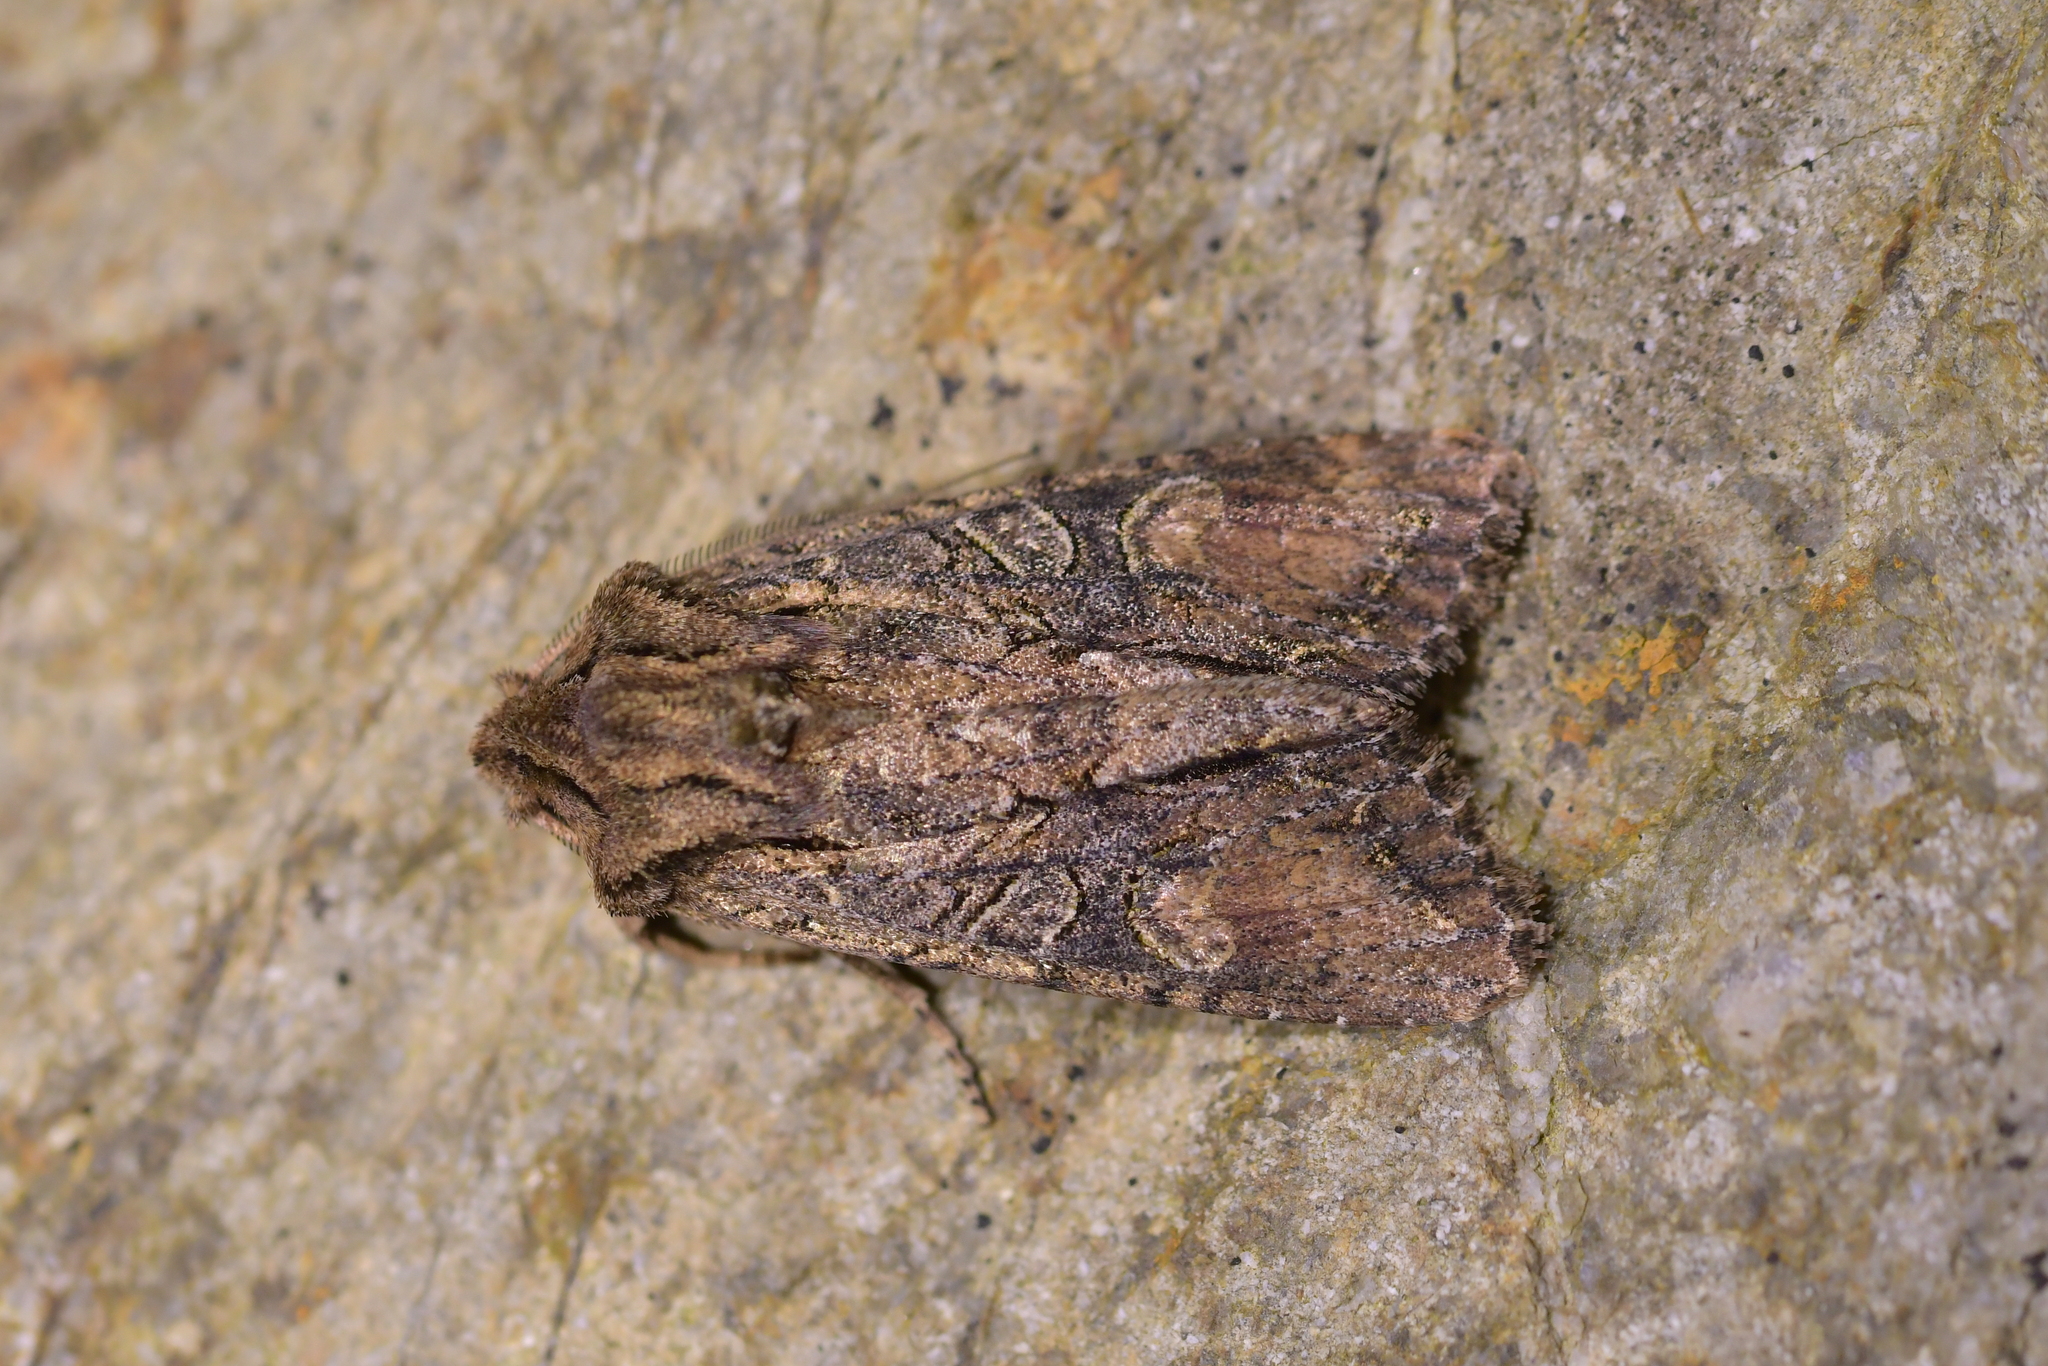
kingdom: Animalia
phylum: Arthropoda
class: Insecta
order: Lepidoptera
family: Noctuidae
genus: Ichneutica
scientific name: Ichneutica mutans
